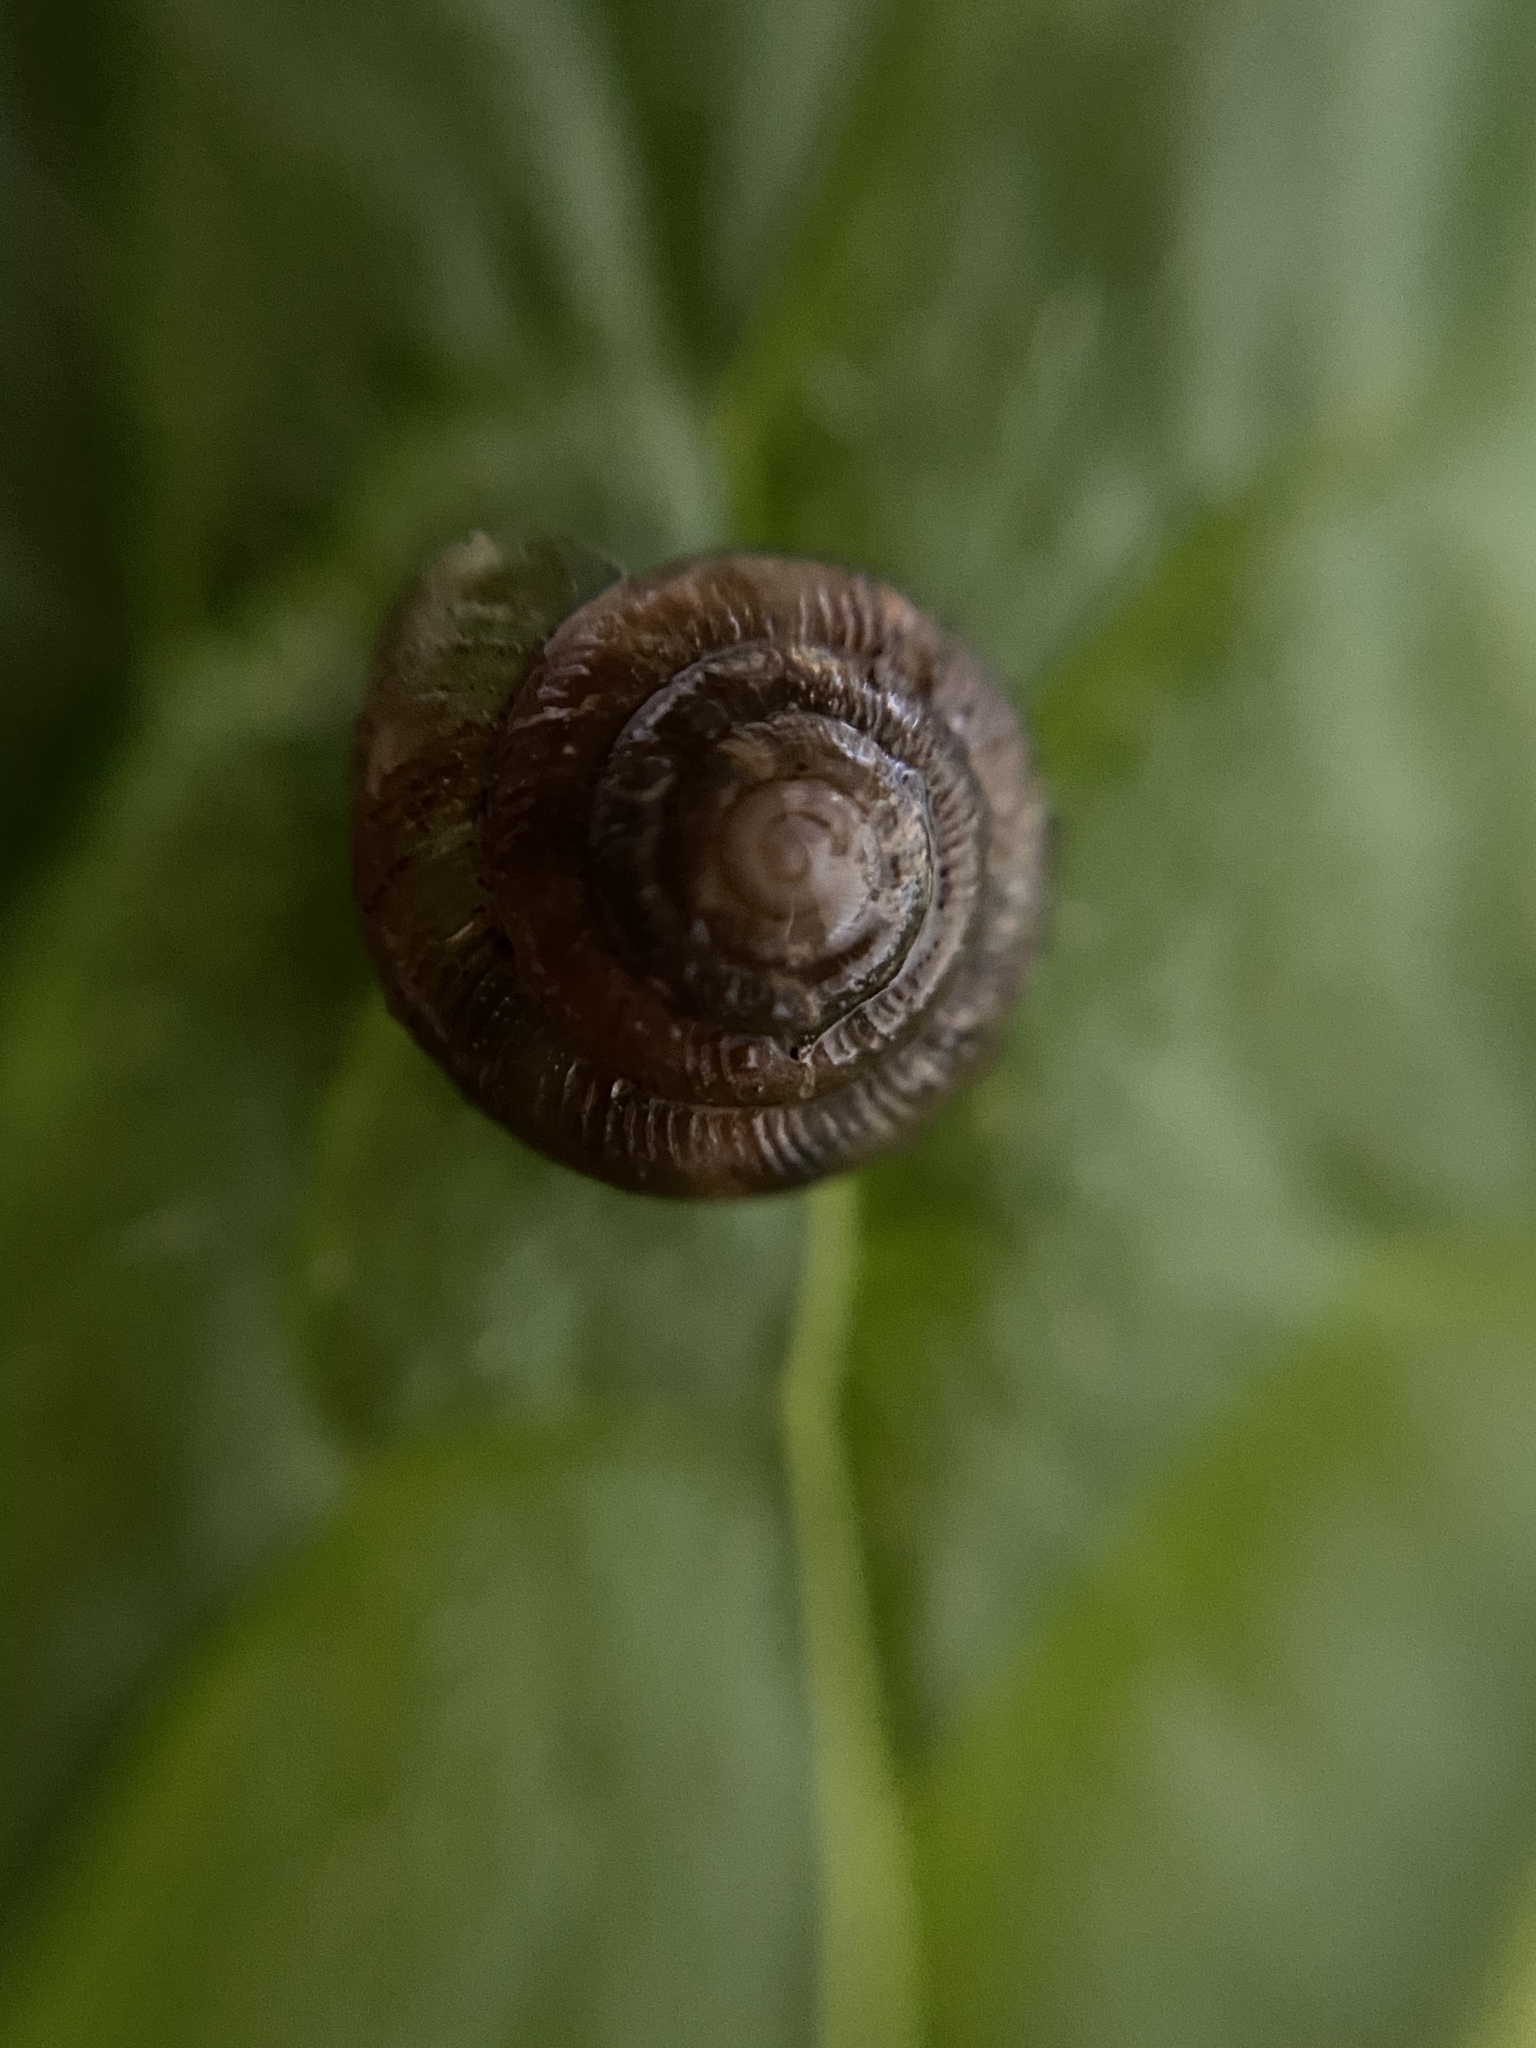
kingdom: Animalia
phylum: Mollusca
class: Gastropoda
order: Stylommatophora
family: Discidae
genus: Discus
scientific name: Discus rotundatus
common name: Rounded snail
